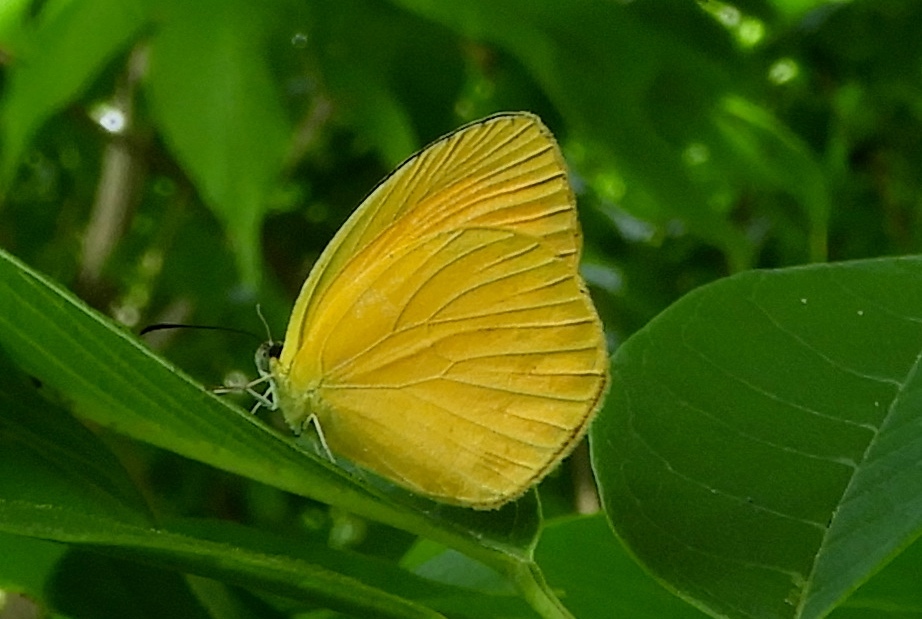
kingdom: Animalia
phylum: Arthropoda
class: Insecta
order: Lepidoptera
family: Pieridae
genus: Pyrisitia
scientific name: Pyrisitia proterpia
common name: Tailed orange
